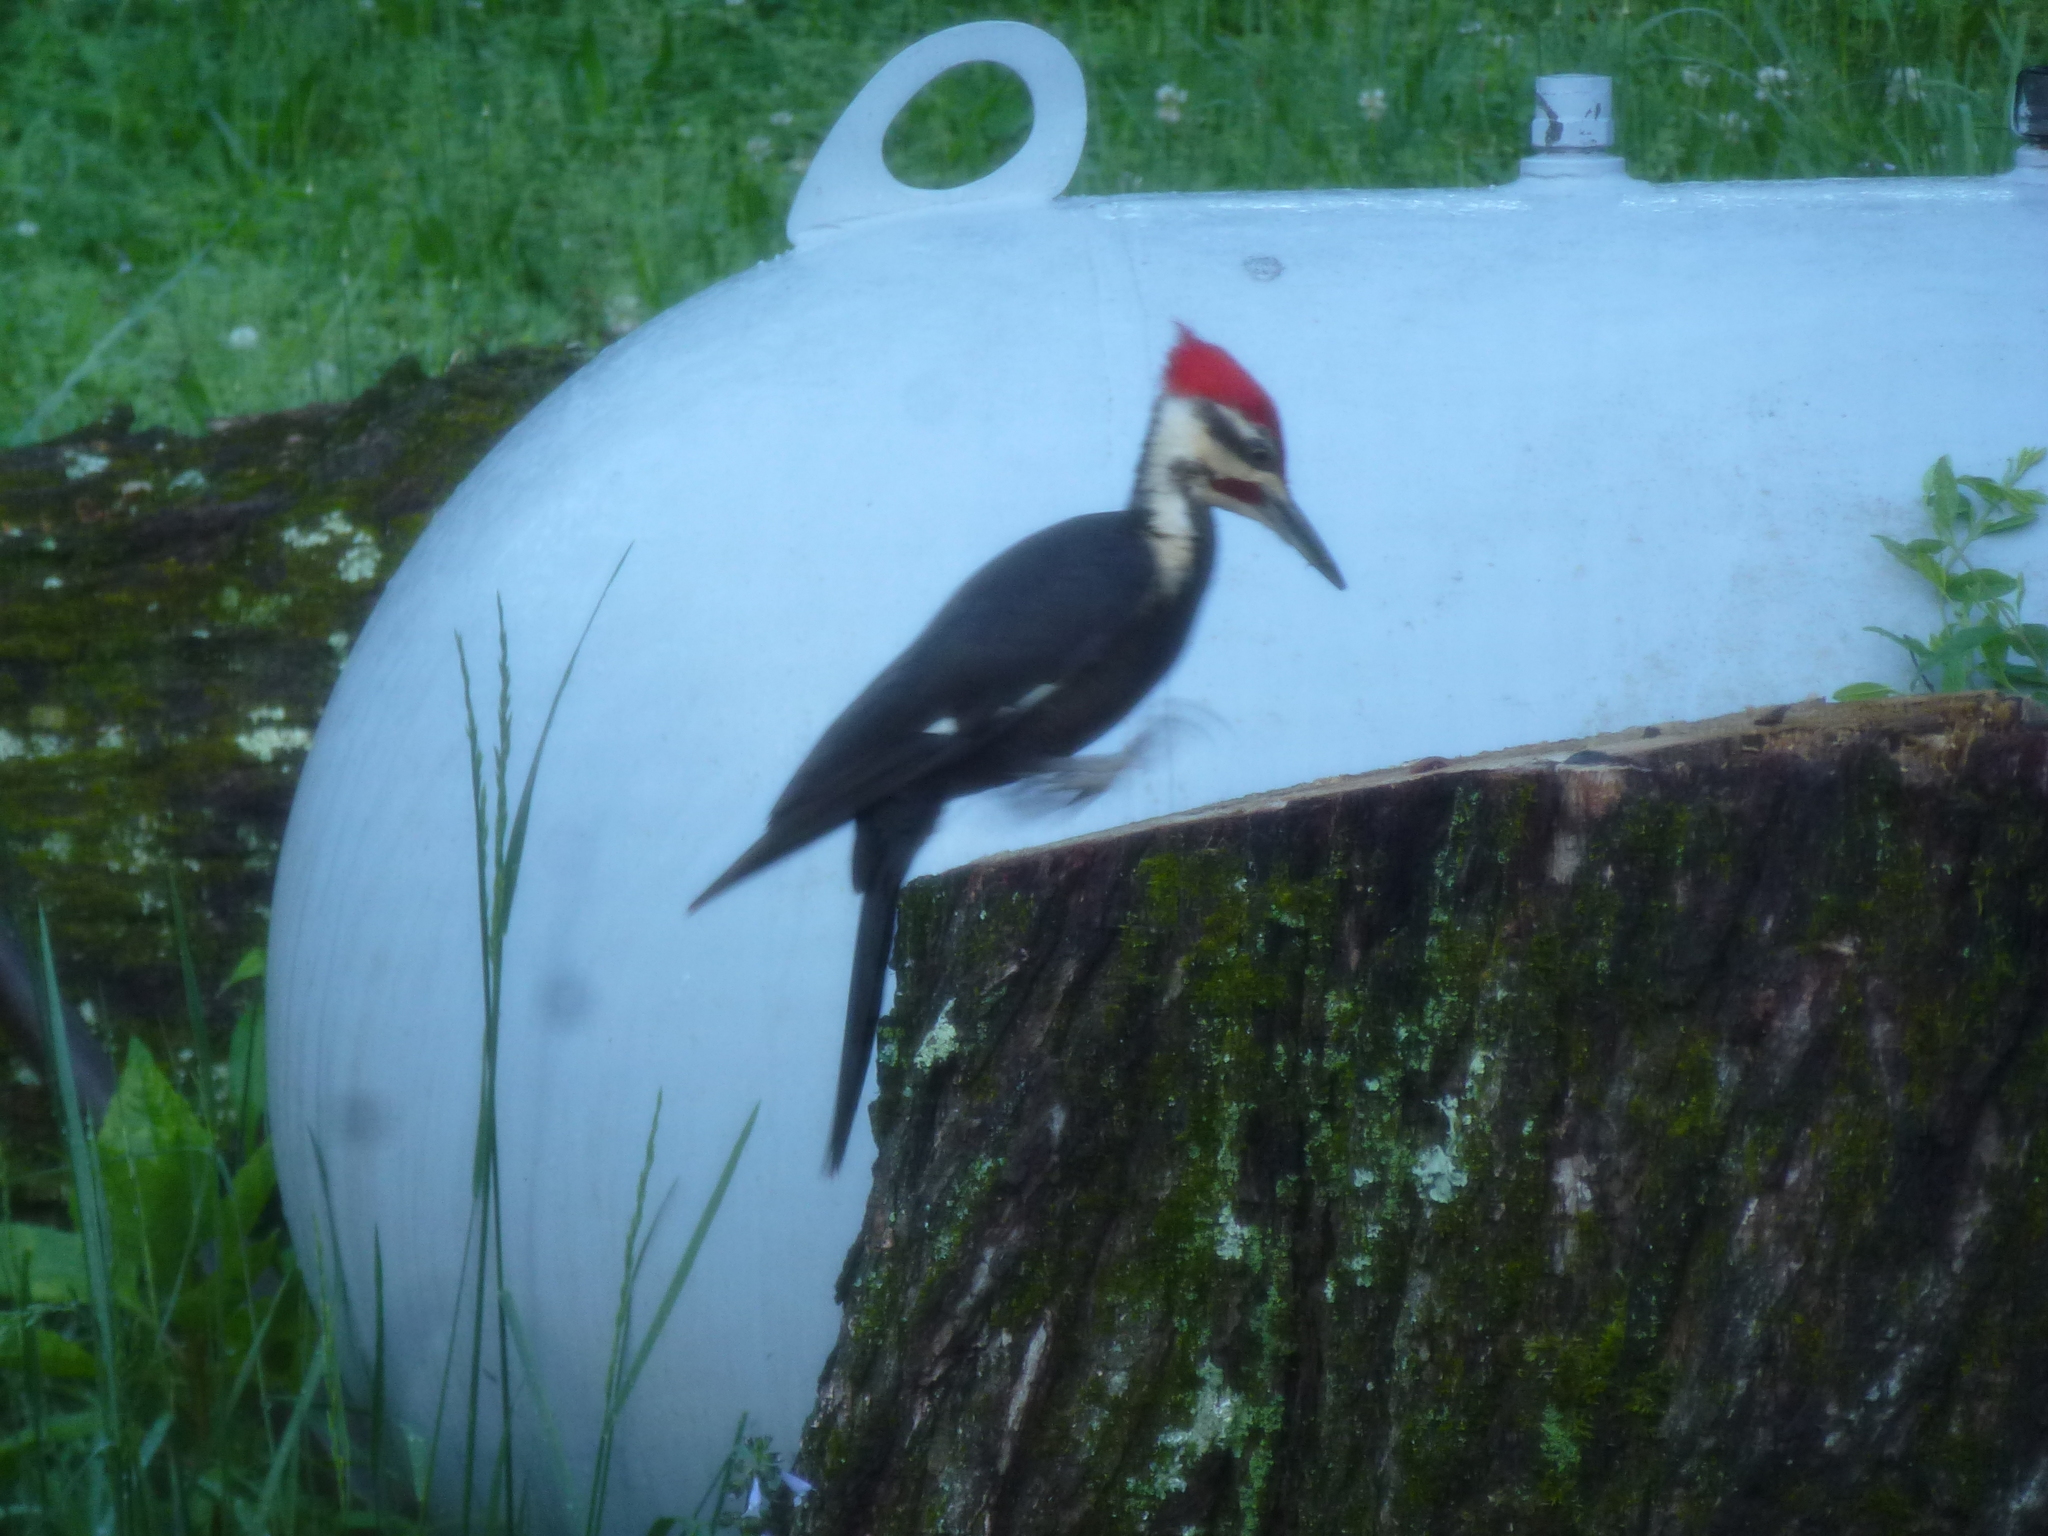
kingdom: Animalia
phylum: Chordata
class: Aves
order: Piciformes
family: Picidae
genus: Dryocopus
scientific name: Dryocopus pileatus
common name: Pileated woodpecker
